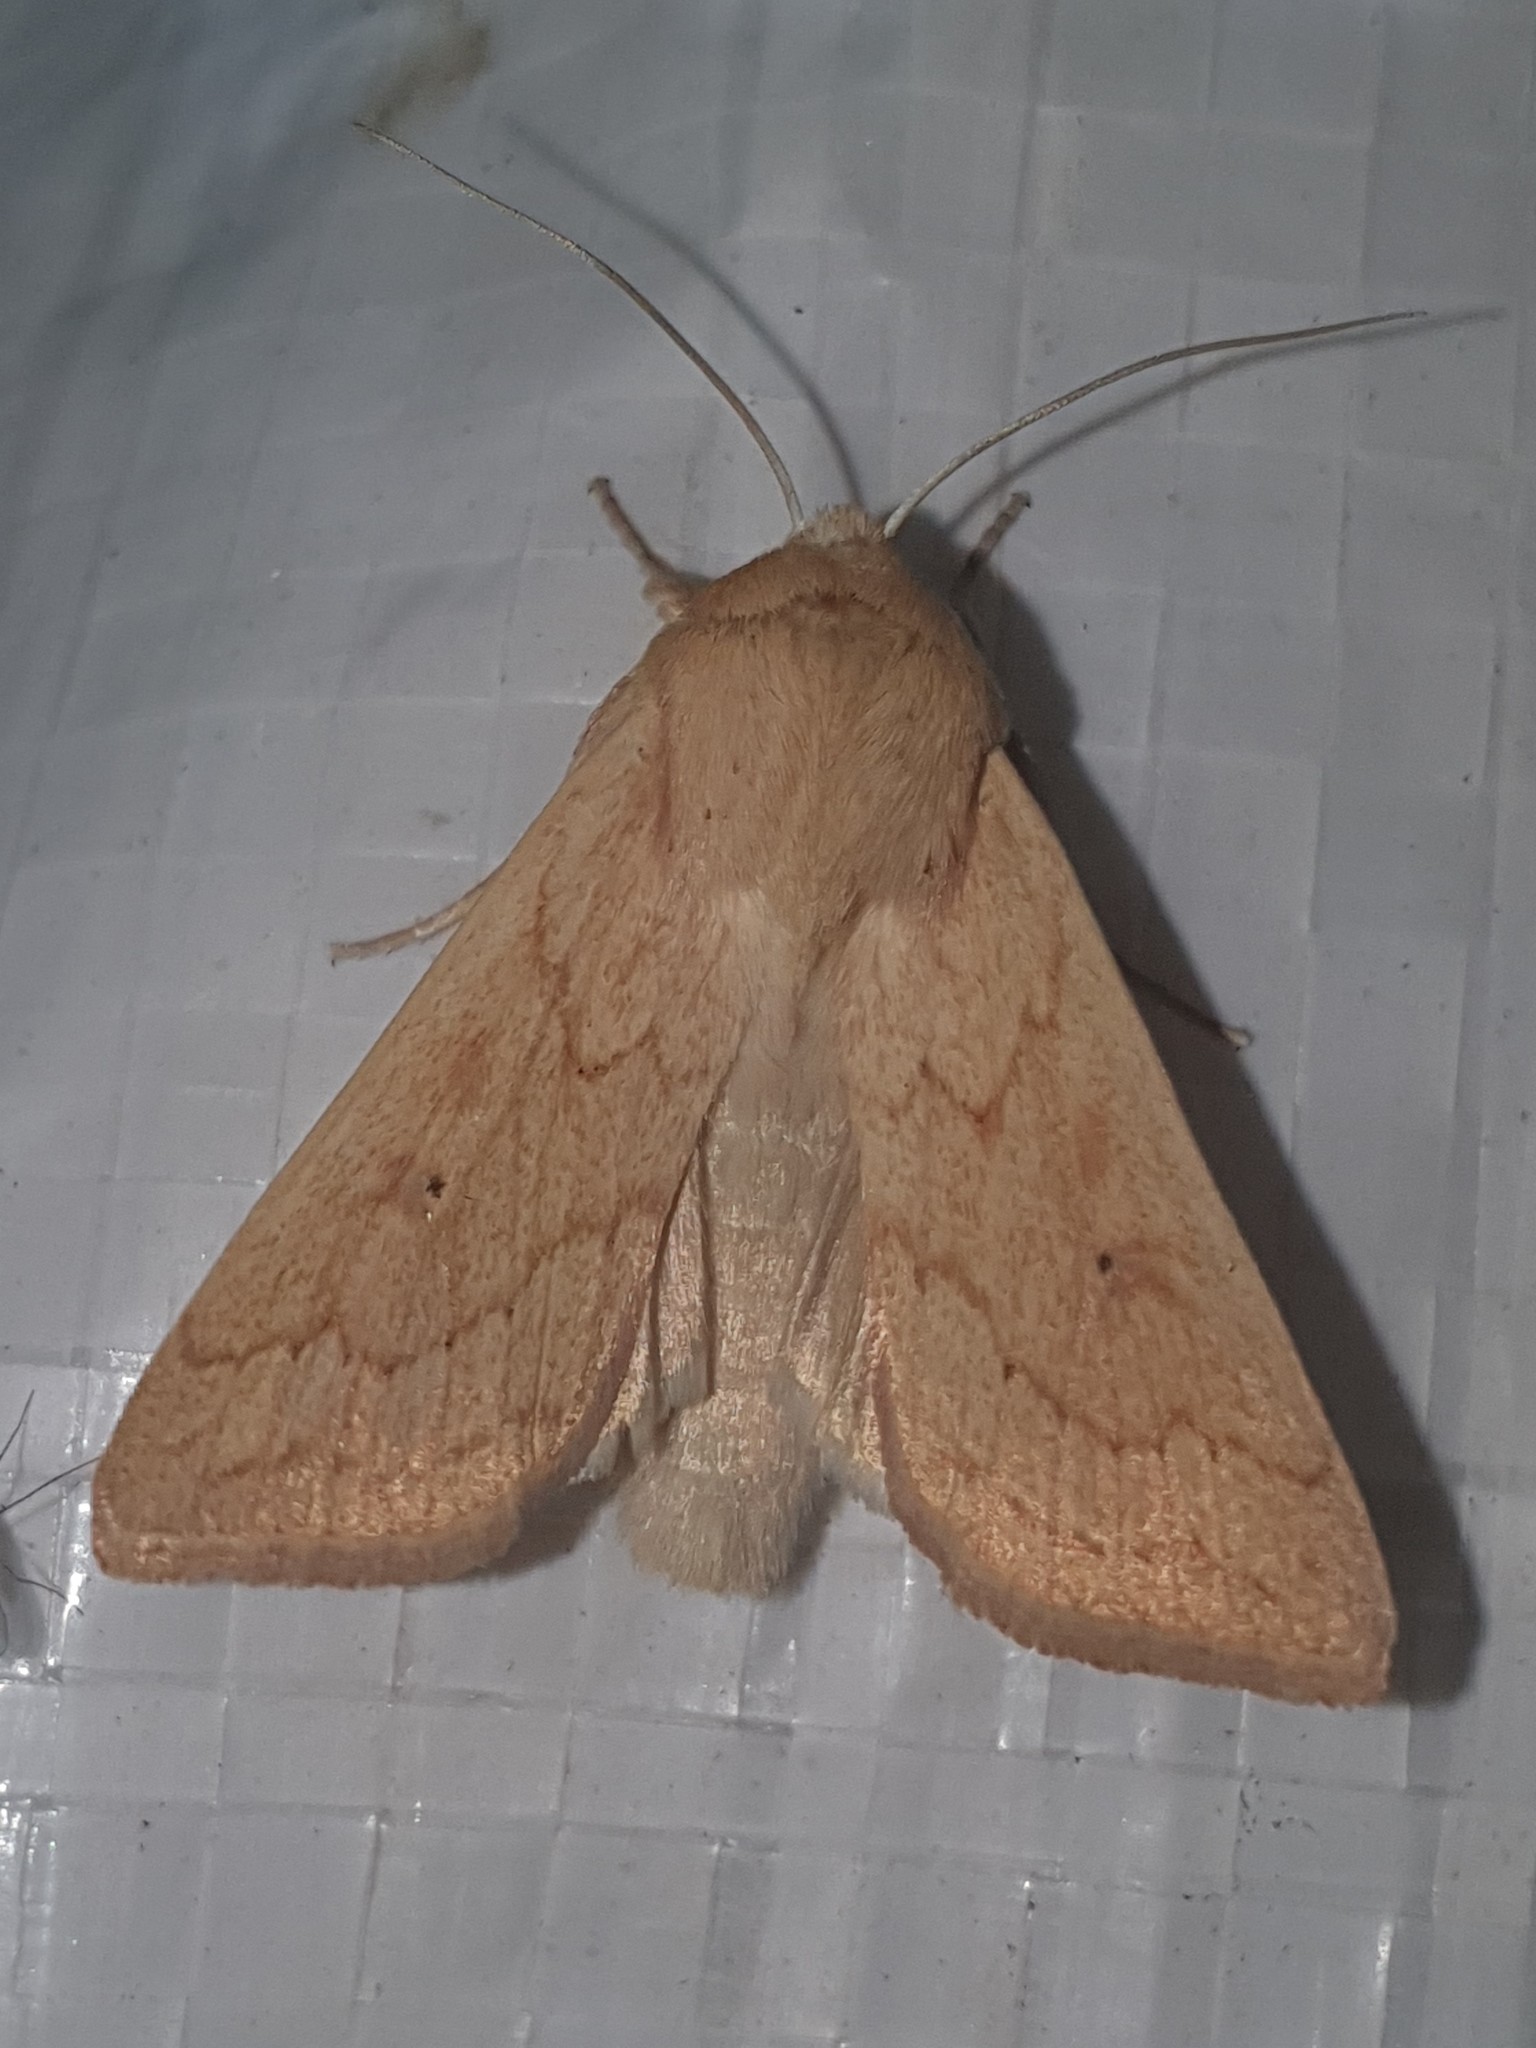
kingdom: Animalia
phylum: Arthropoda
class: Insecta
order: Lepidoptera
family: Noctuidae
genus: Mythimna
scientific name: Mythimna vitellina
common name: Delicate
